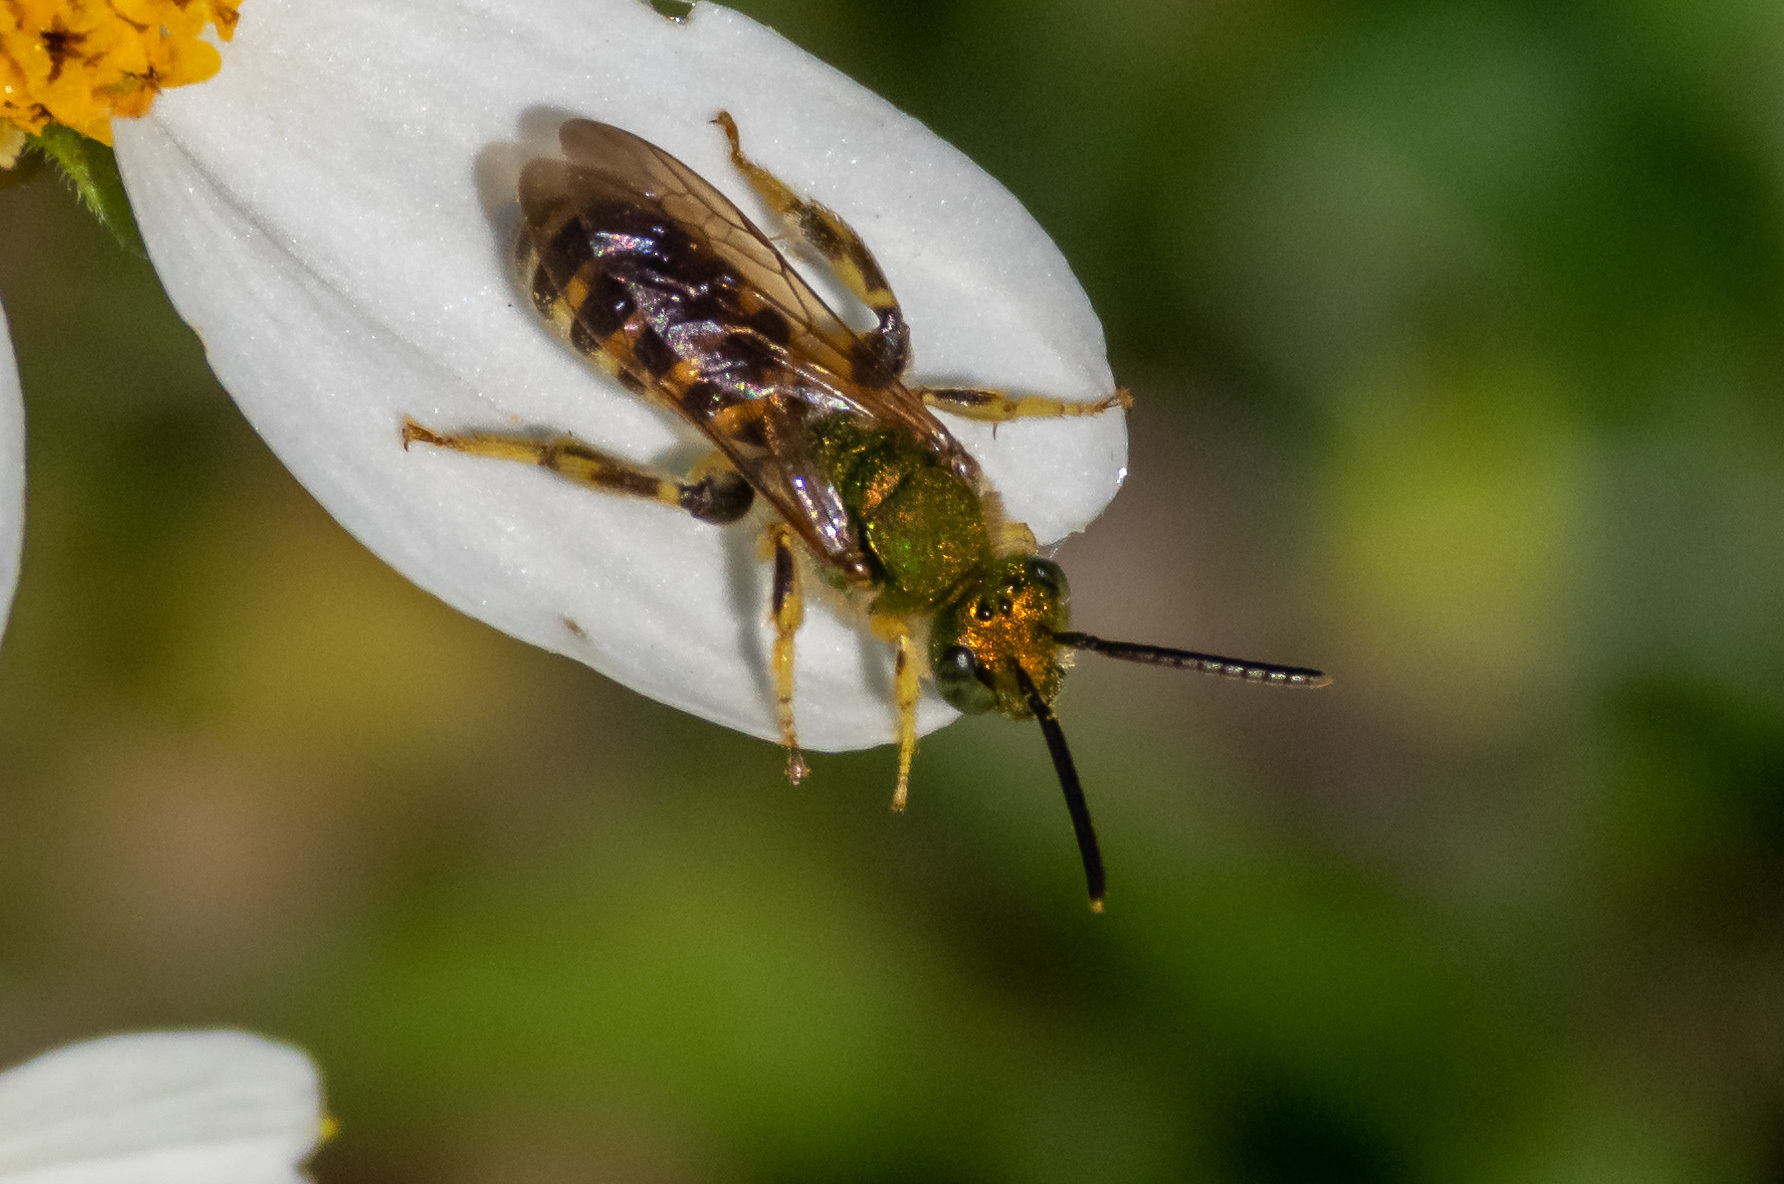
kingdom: Animalia
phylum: Arthropoda
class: Insecta
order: Hymenoptera
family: Halictidae
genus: Agapostemon
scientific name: Agapostemon splendens
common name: Brown-winged striped sweat bee
